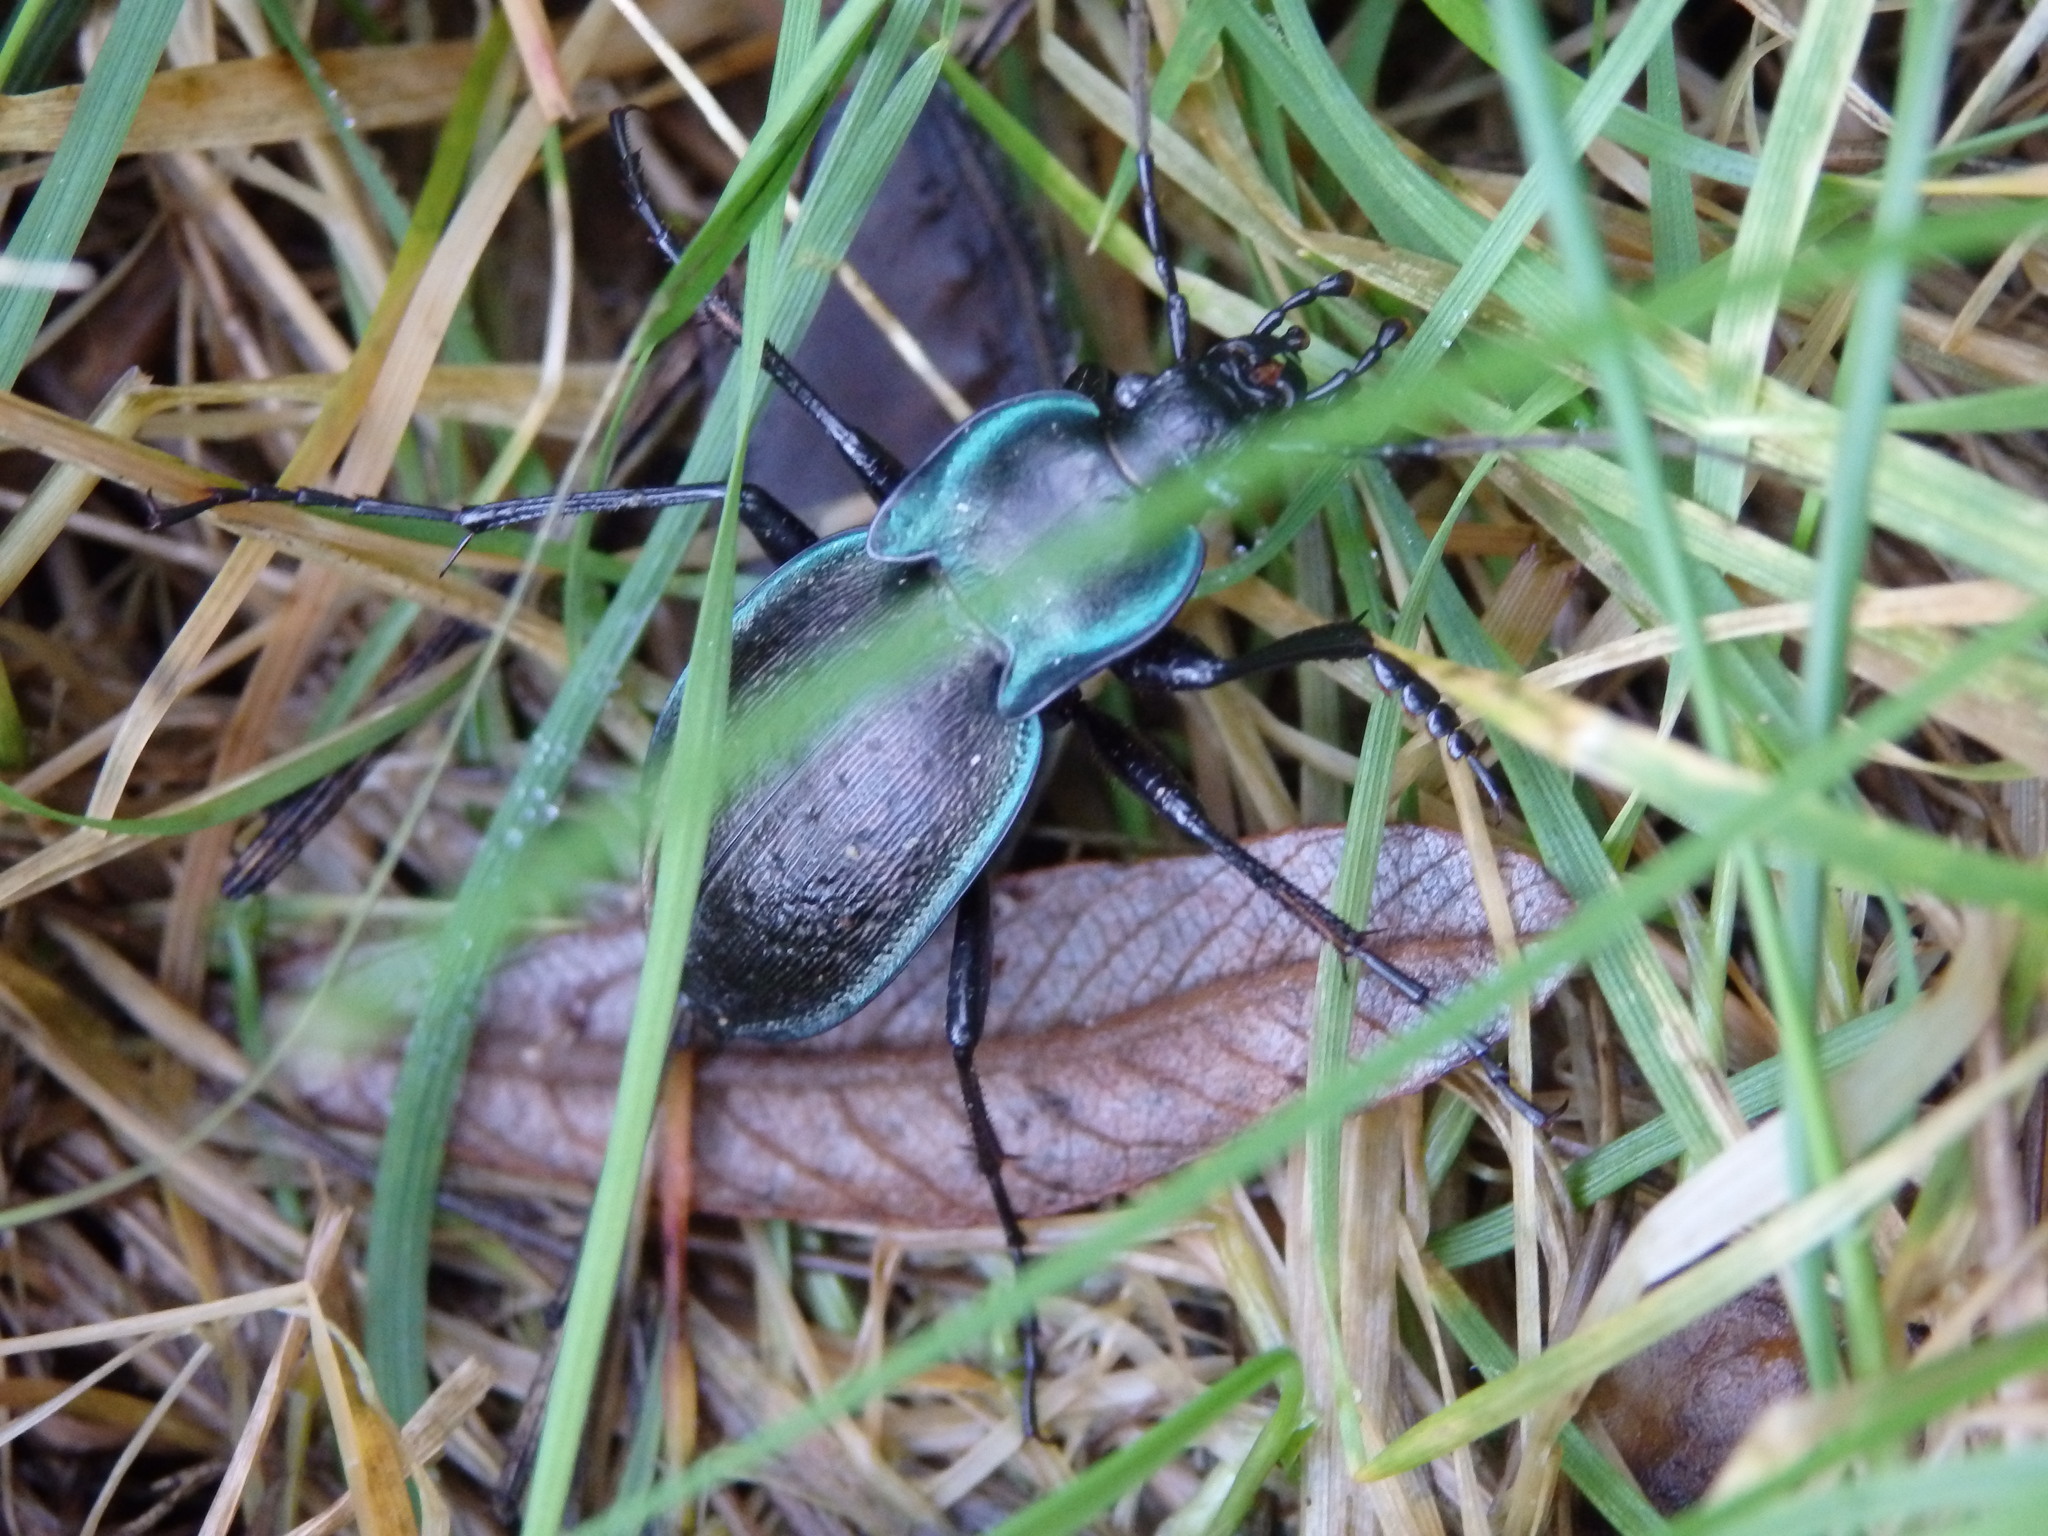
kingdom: Animalia
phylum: Arthropoda
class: Insecta
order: Coleoptera
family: Carabidae
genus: Carabus
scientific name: Carabus luetgensi
